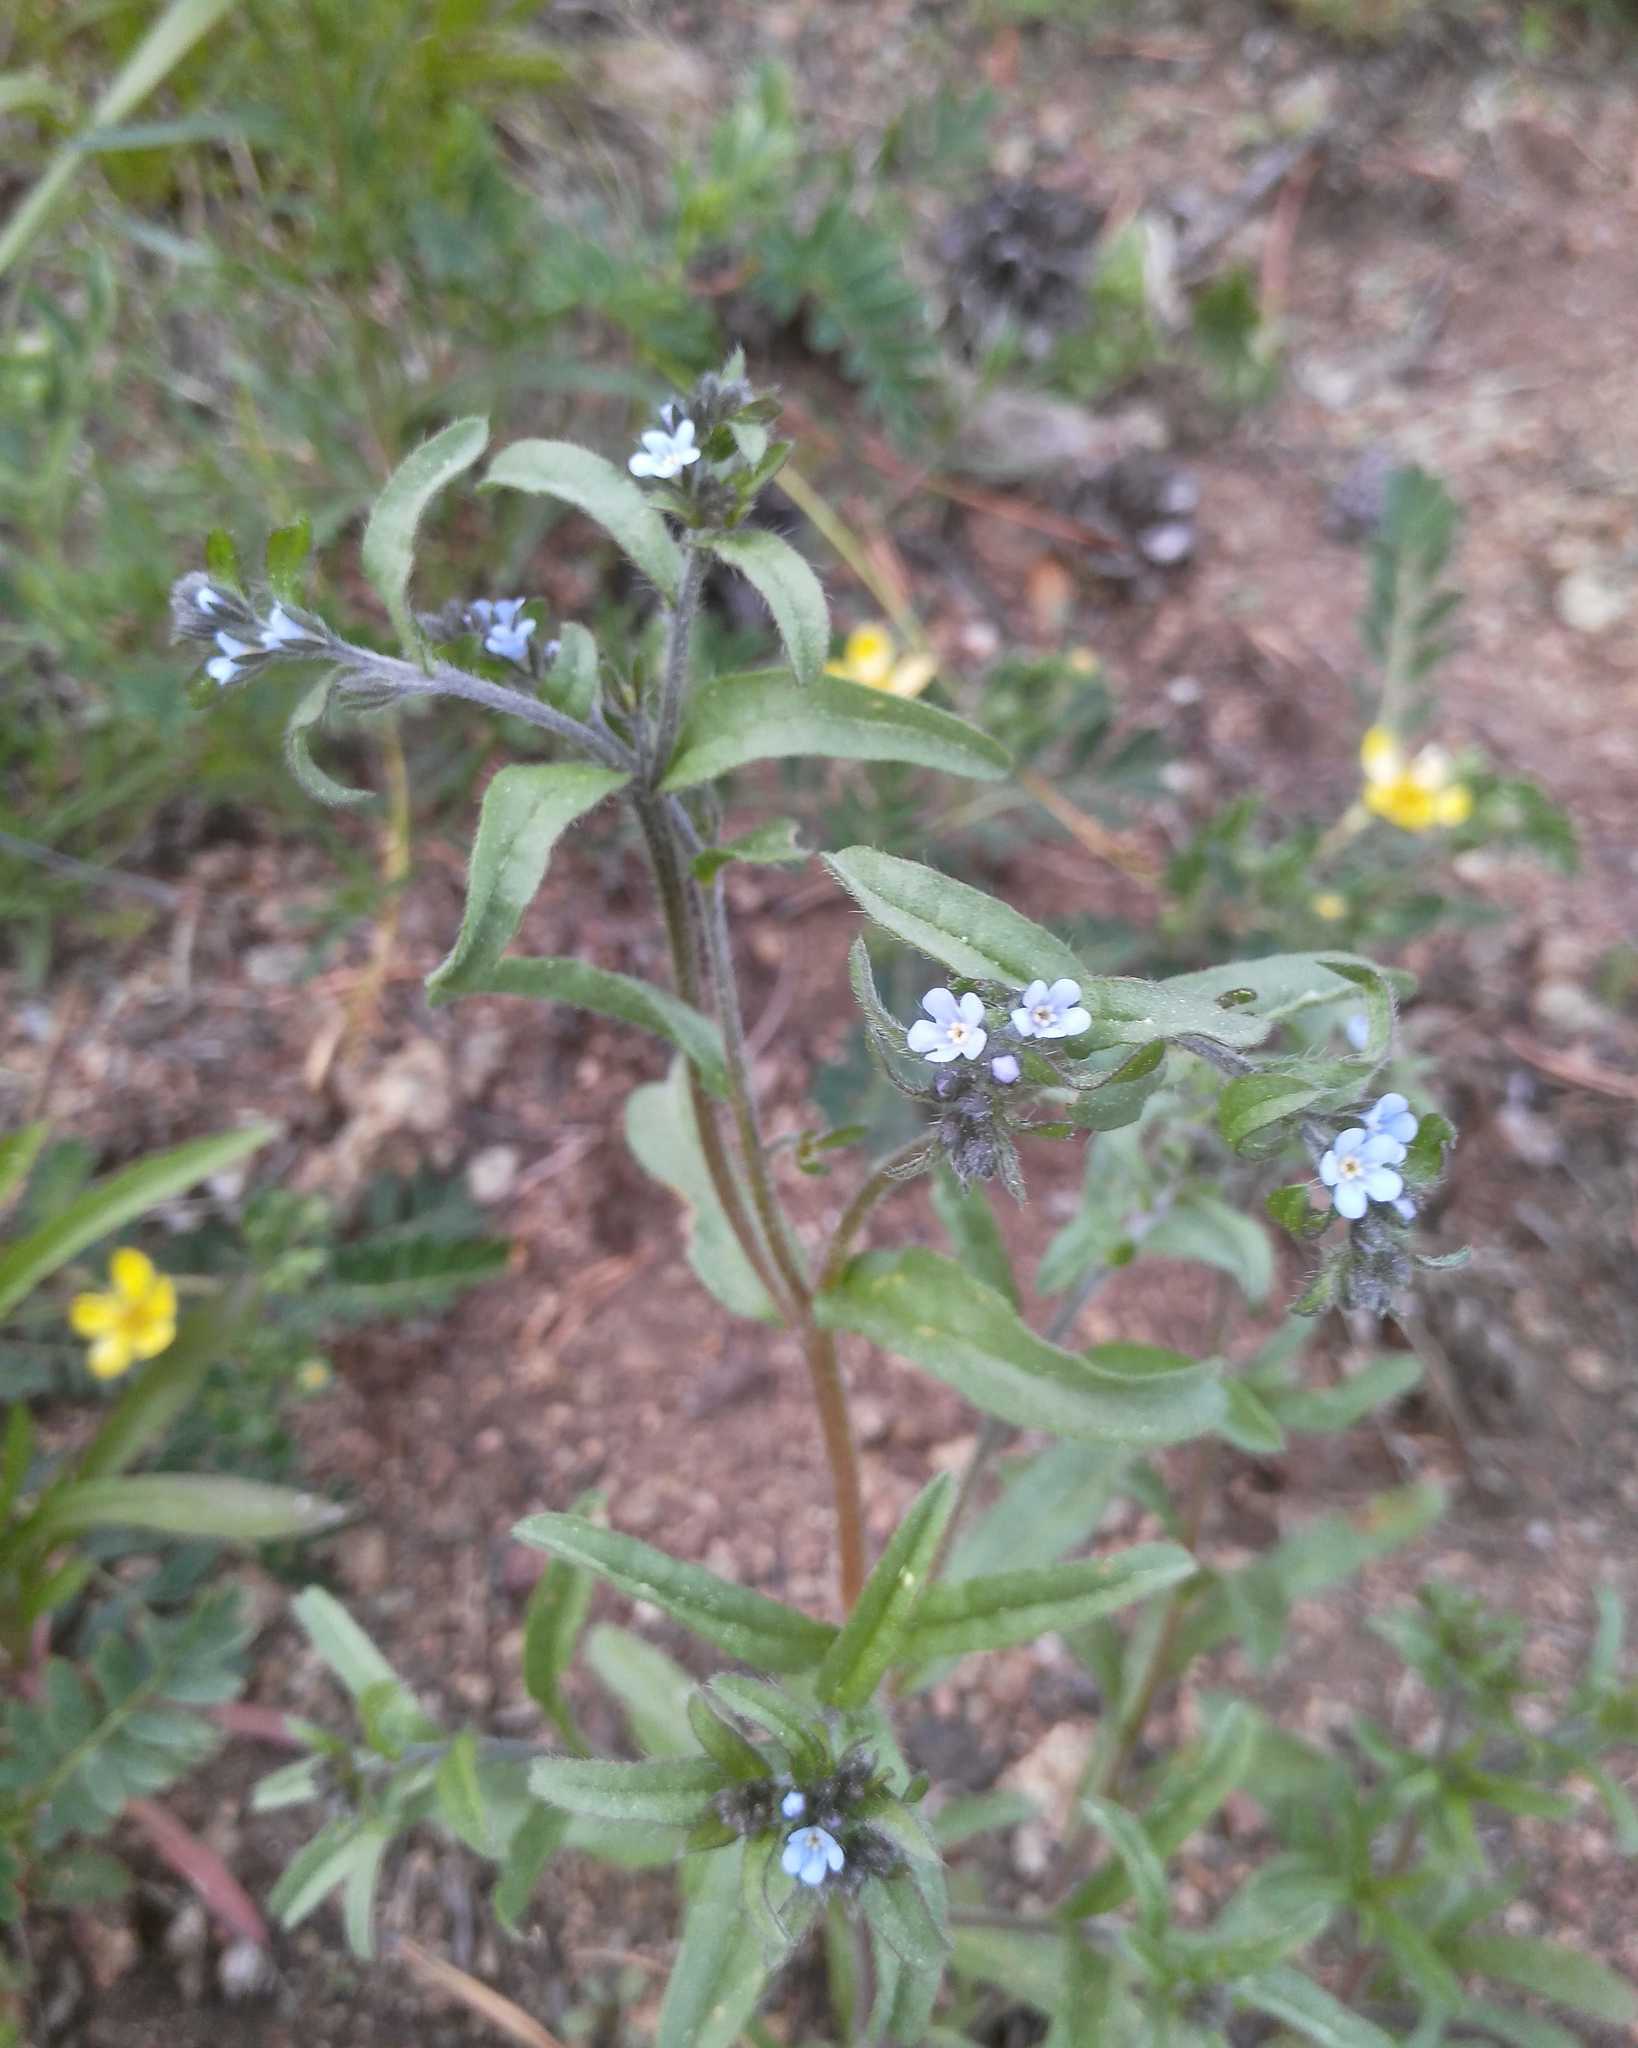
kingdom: Plantae
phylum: Tracheophyta
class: Magnoliopsida
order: Boraginales
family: Boraginaceae
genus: Lappula
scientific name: Lappula squarrosa
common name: European stickseed
